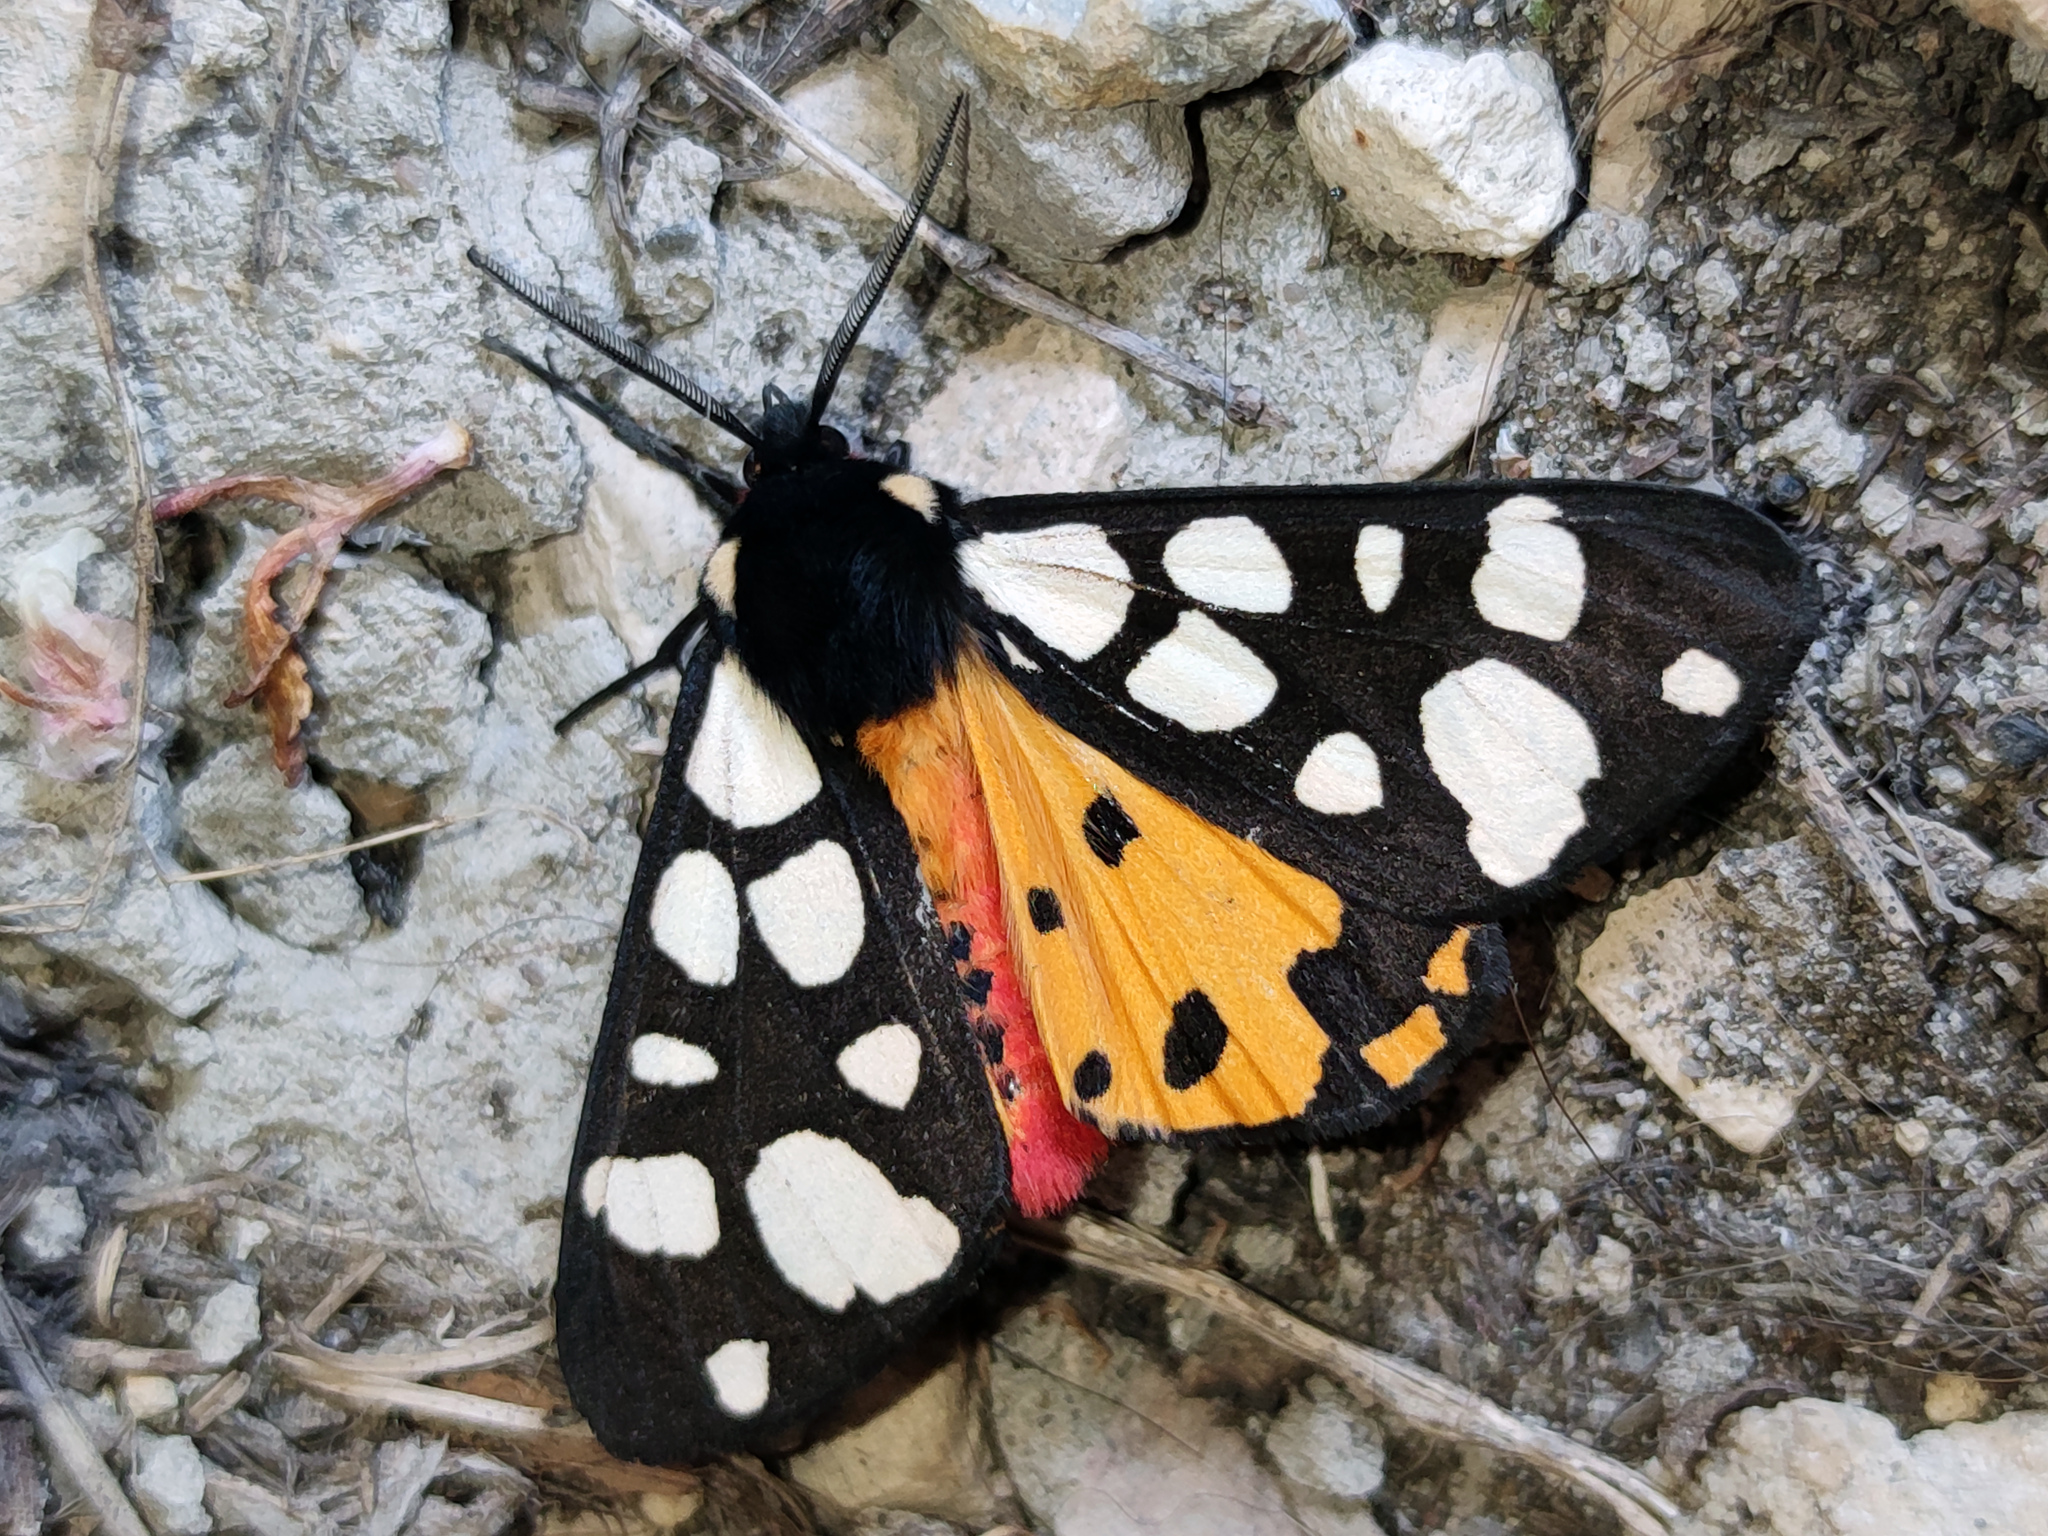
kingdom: Animalia
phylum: Arthropoda
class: Insecta
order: Lepidoptera
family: Erebidae
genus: Epicallia
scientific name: Epicallia villica
